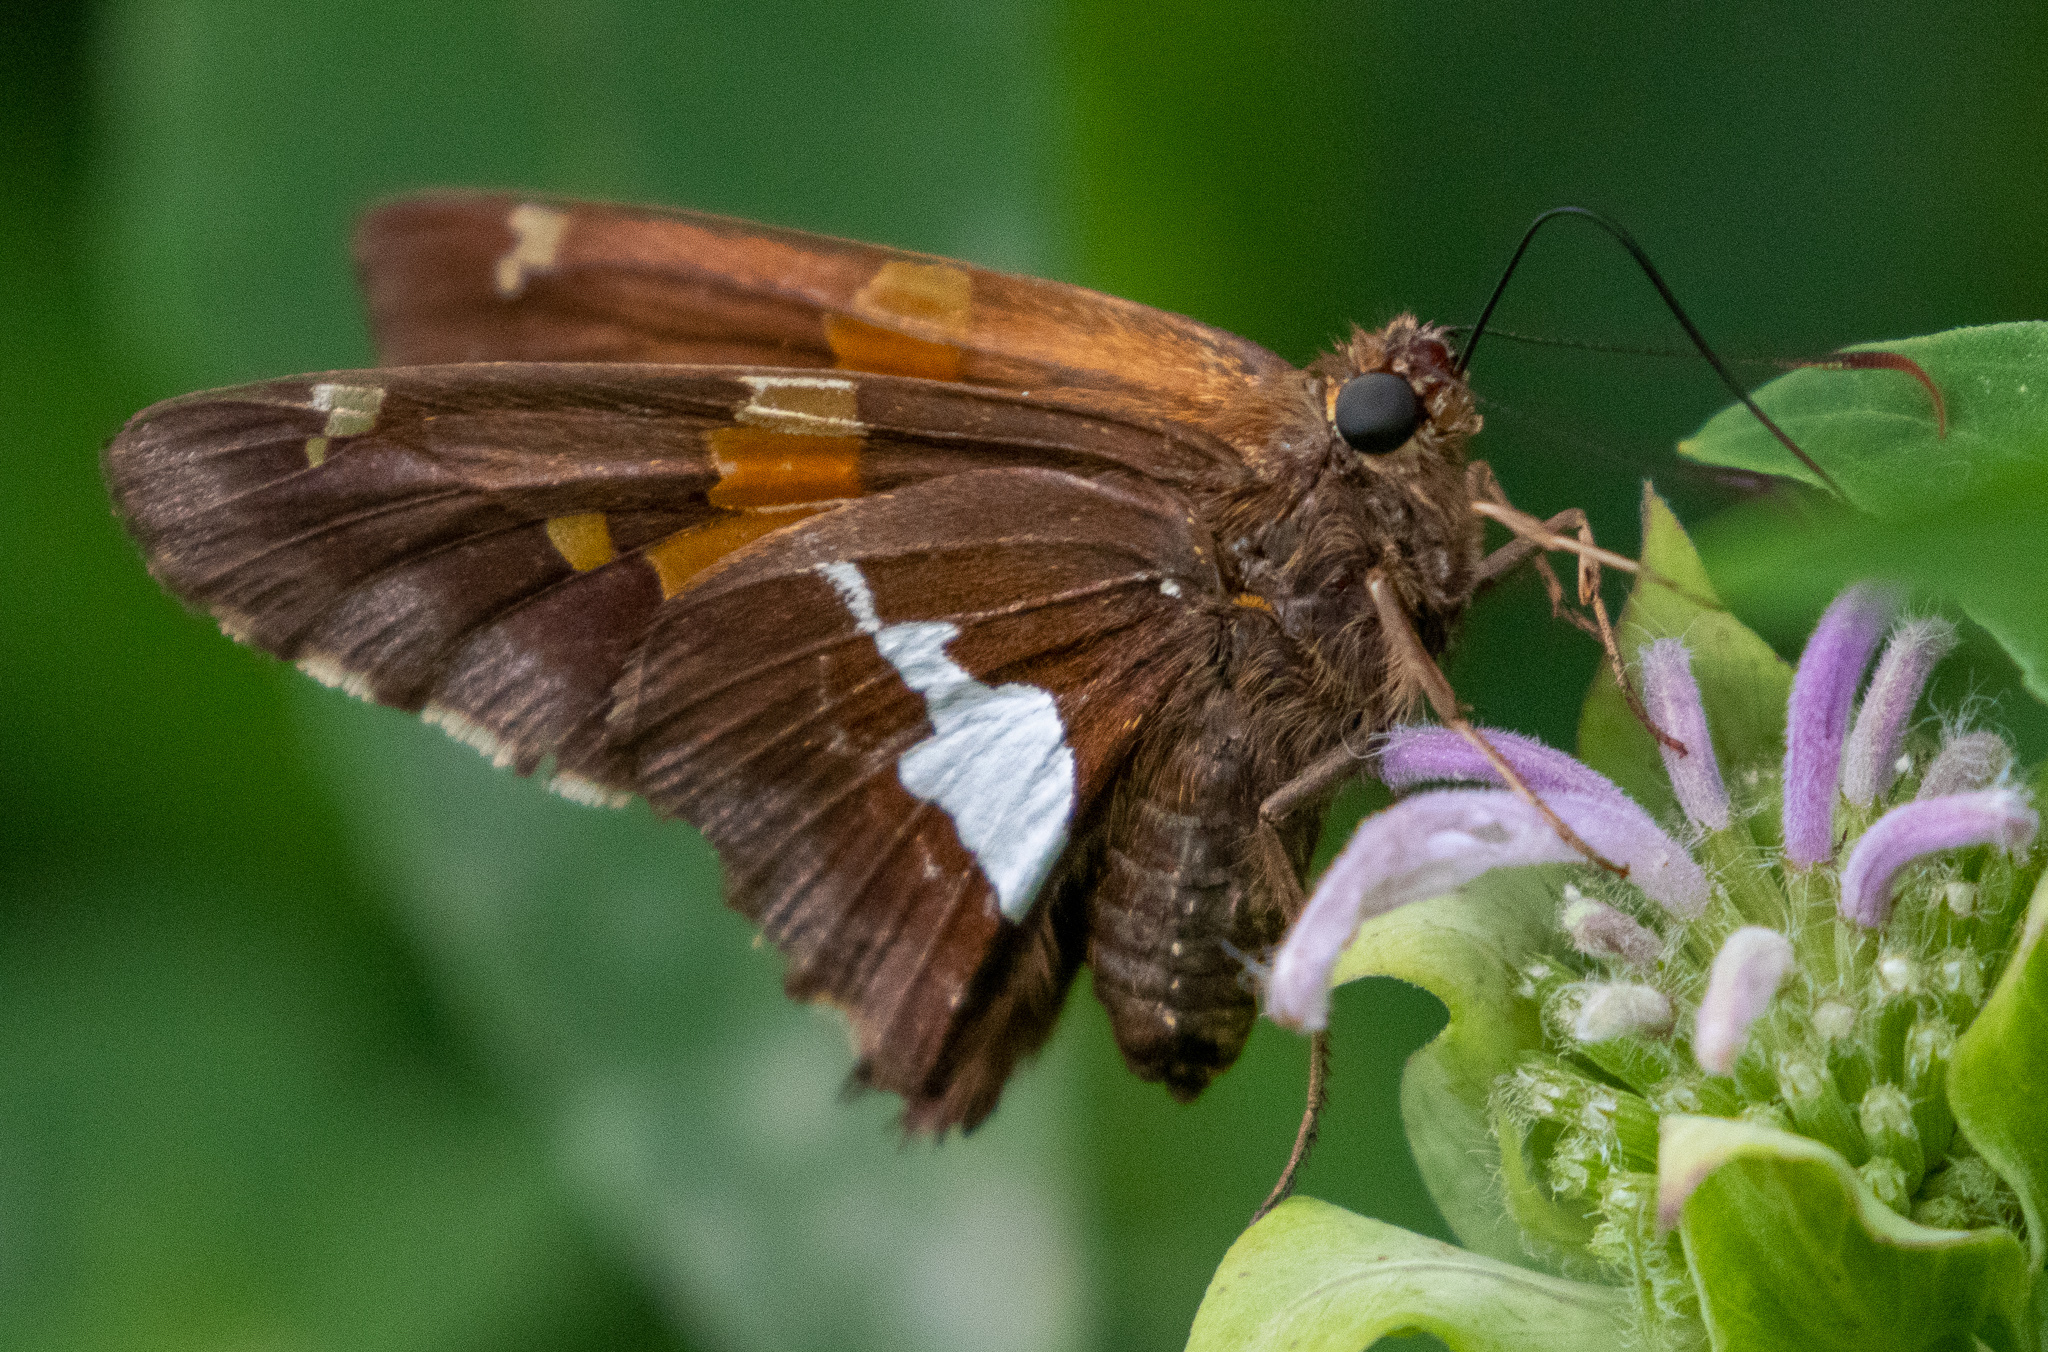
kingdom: Animalia
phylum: Arthropoda
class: Insecta
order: Lepidoptera
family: Hesperiidae
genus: Epargyreus
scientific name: Epargyreus clarus
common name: Silver-spotted skipper
